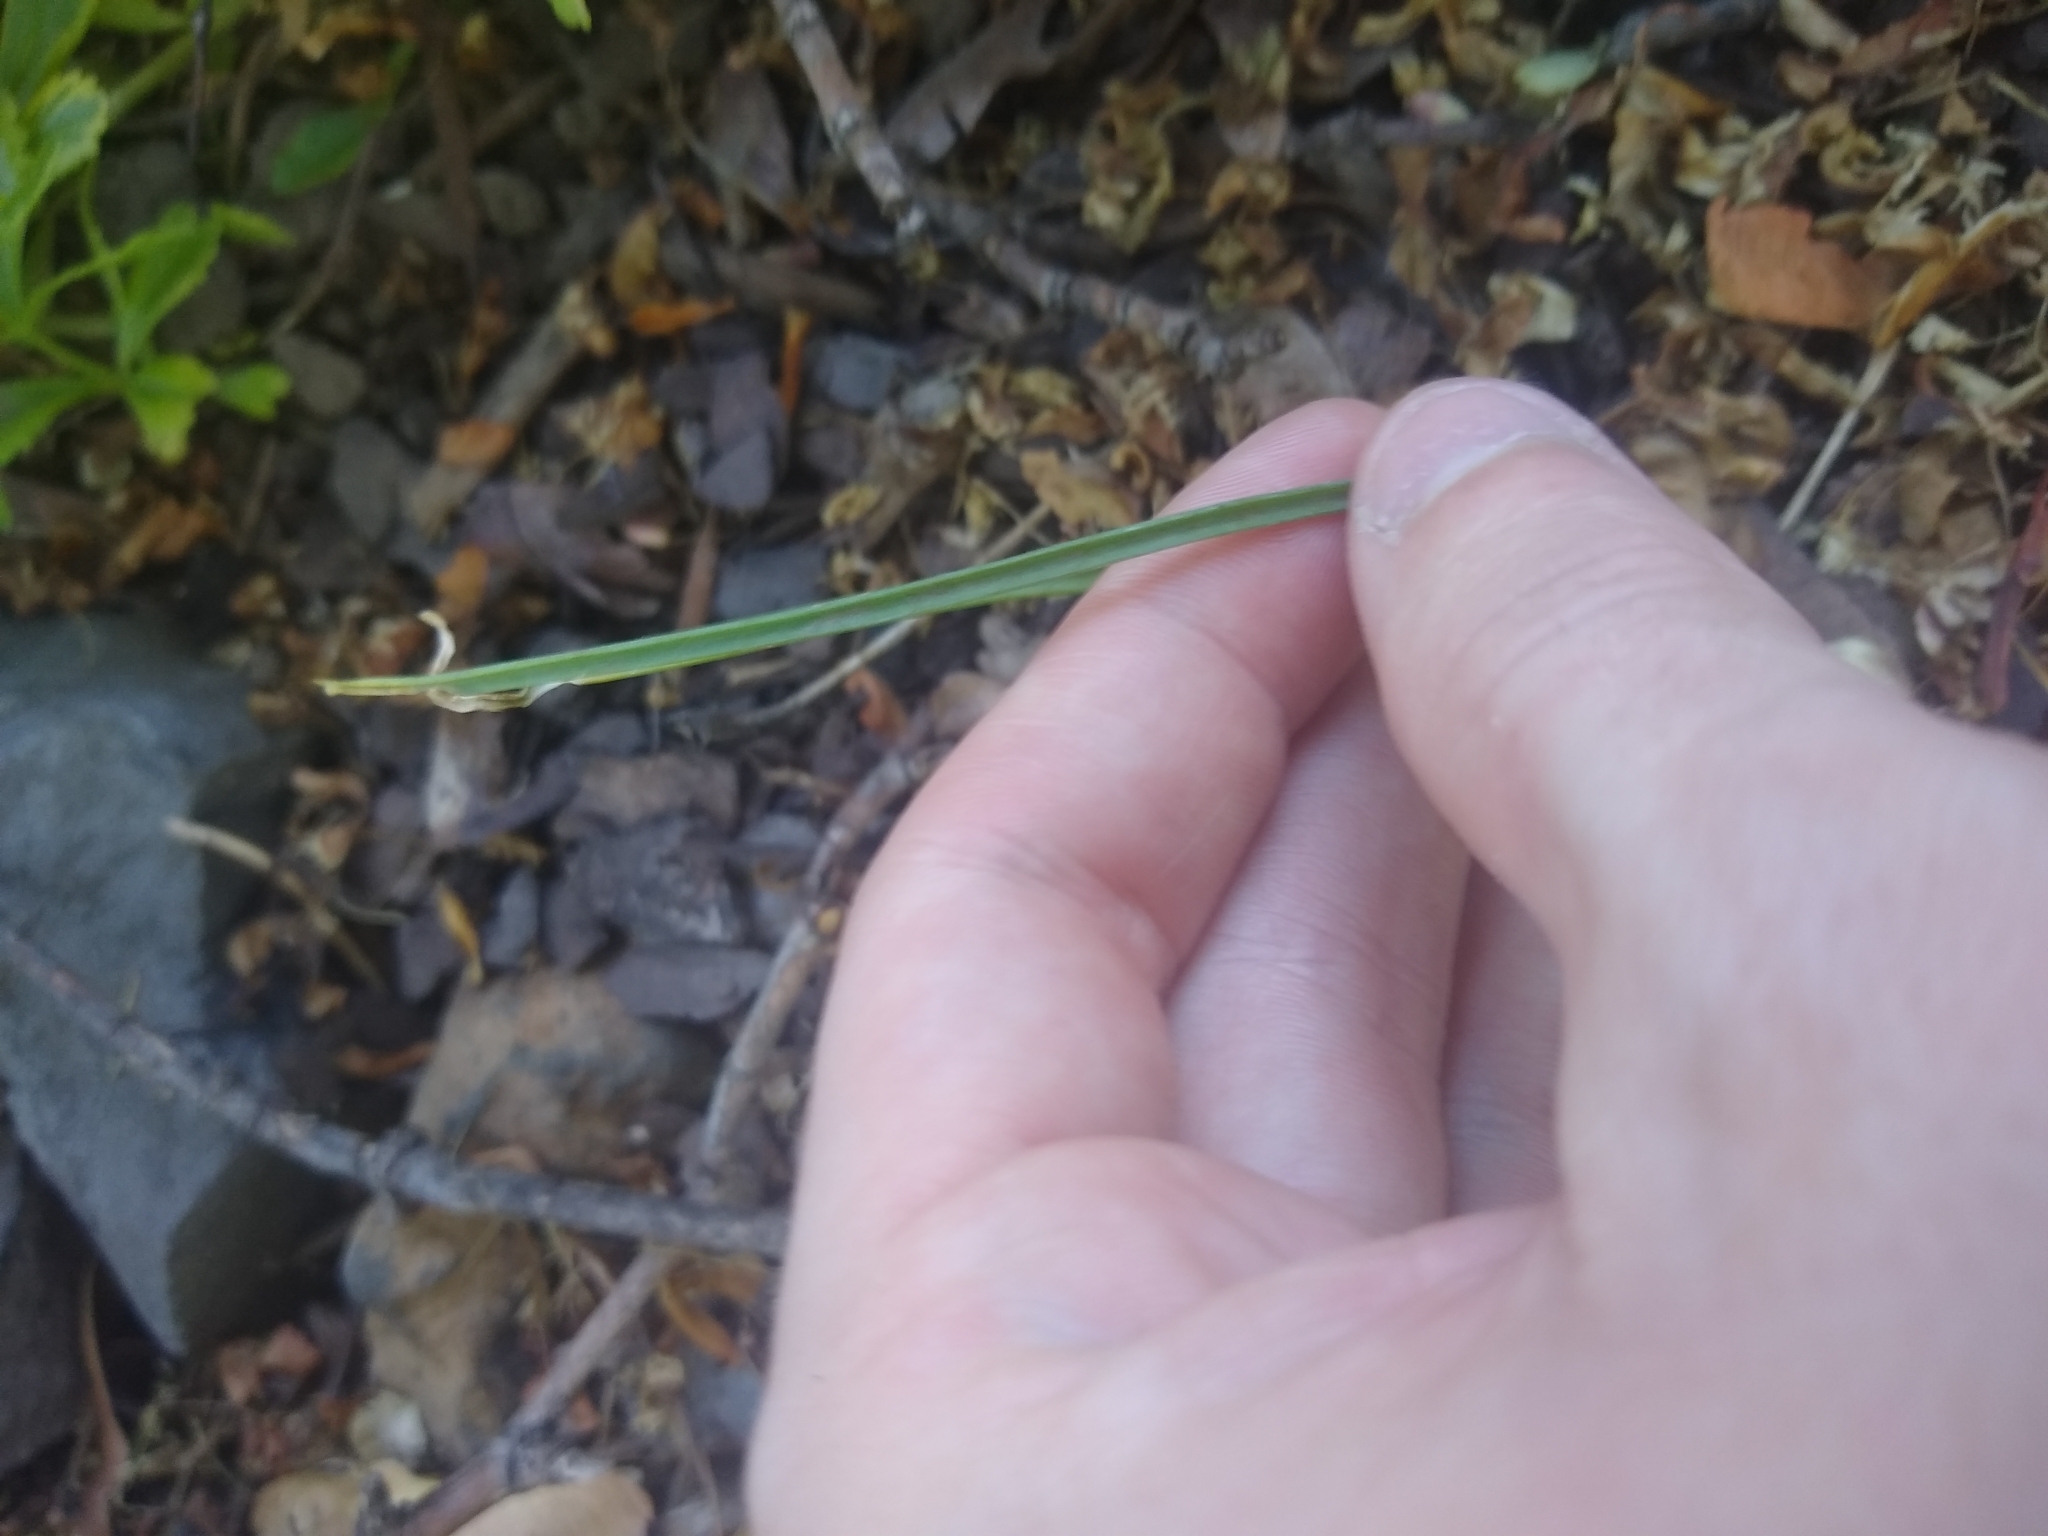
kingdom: Plantae
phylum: Tracheophyta
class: Liliopsida
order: Asparagales
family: Amaryllidaceae
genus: Allium
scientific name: Allium acuminatum
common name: Hooker's onion
